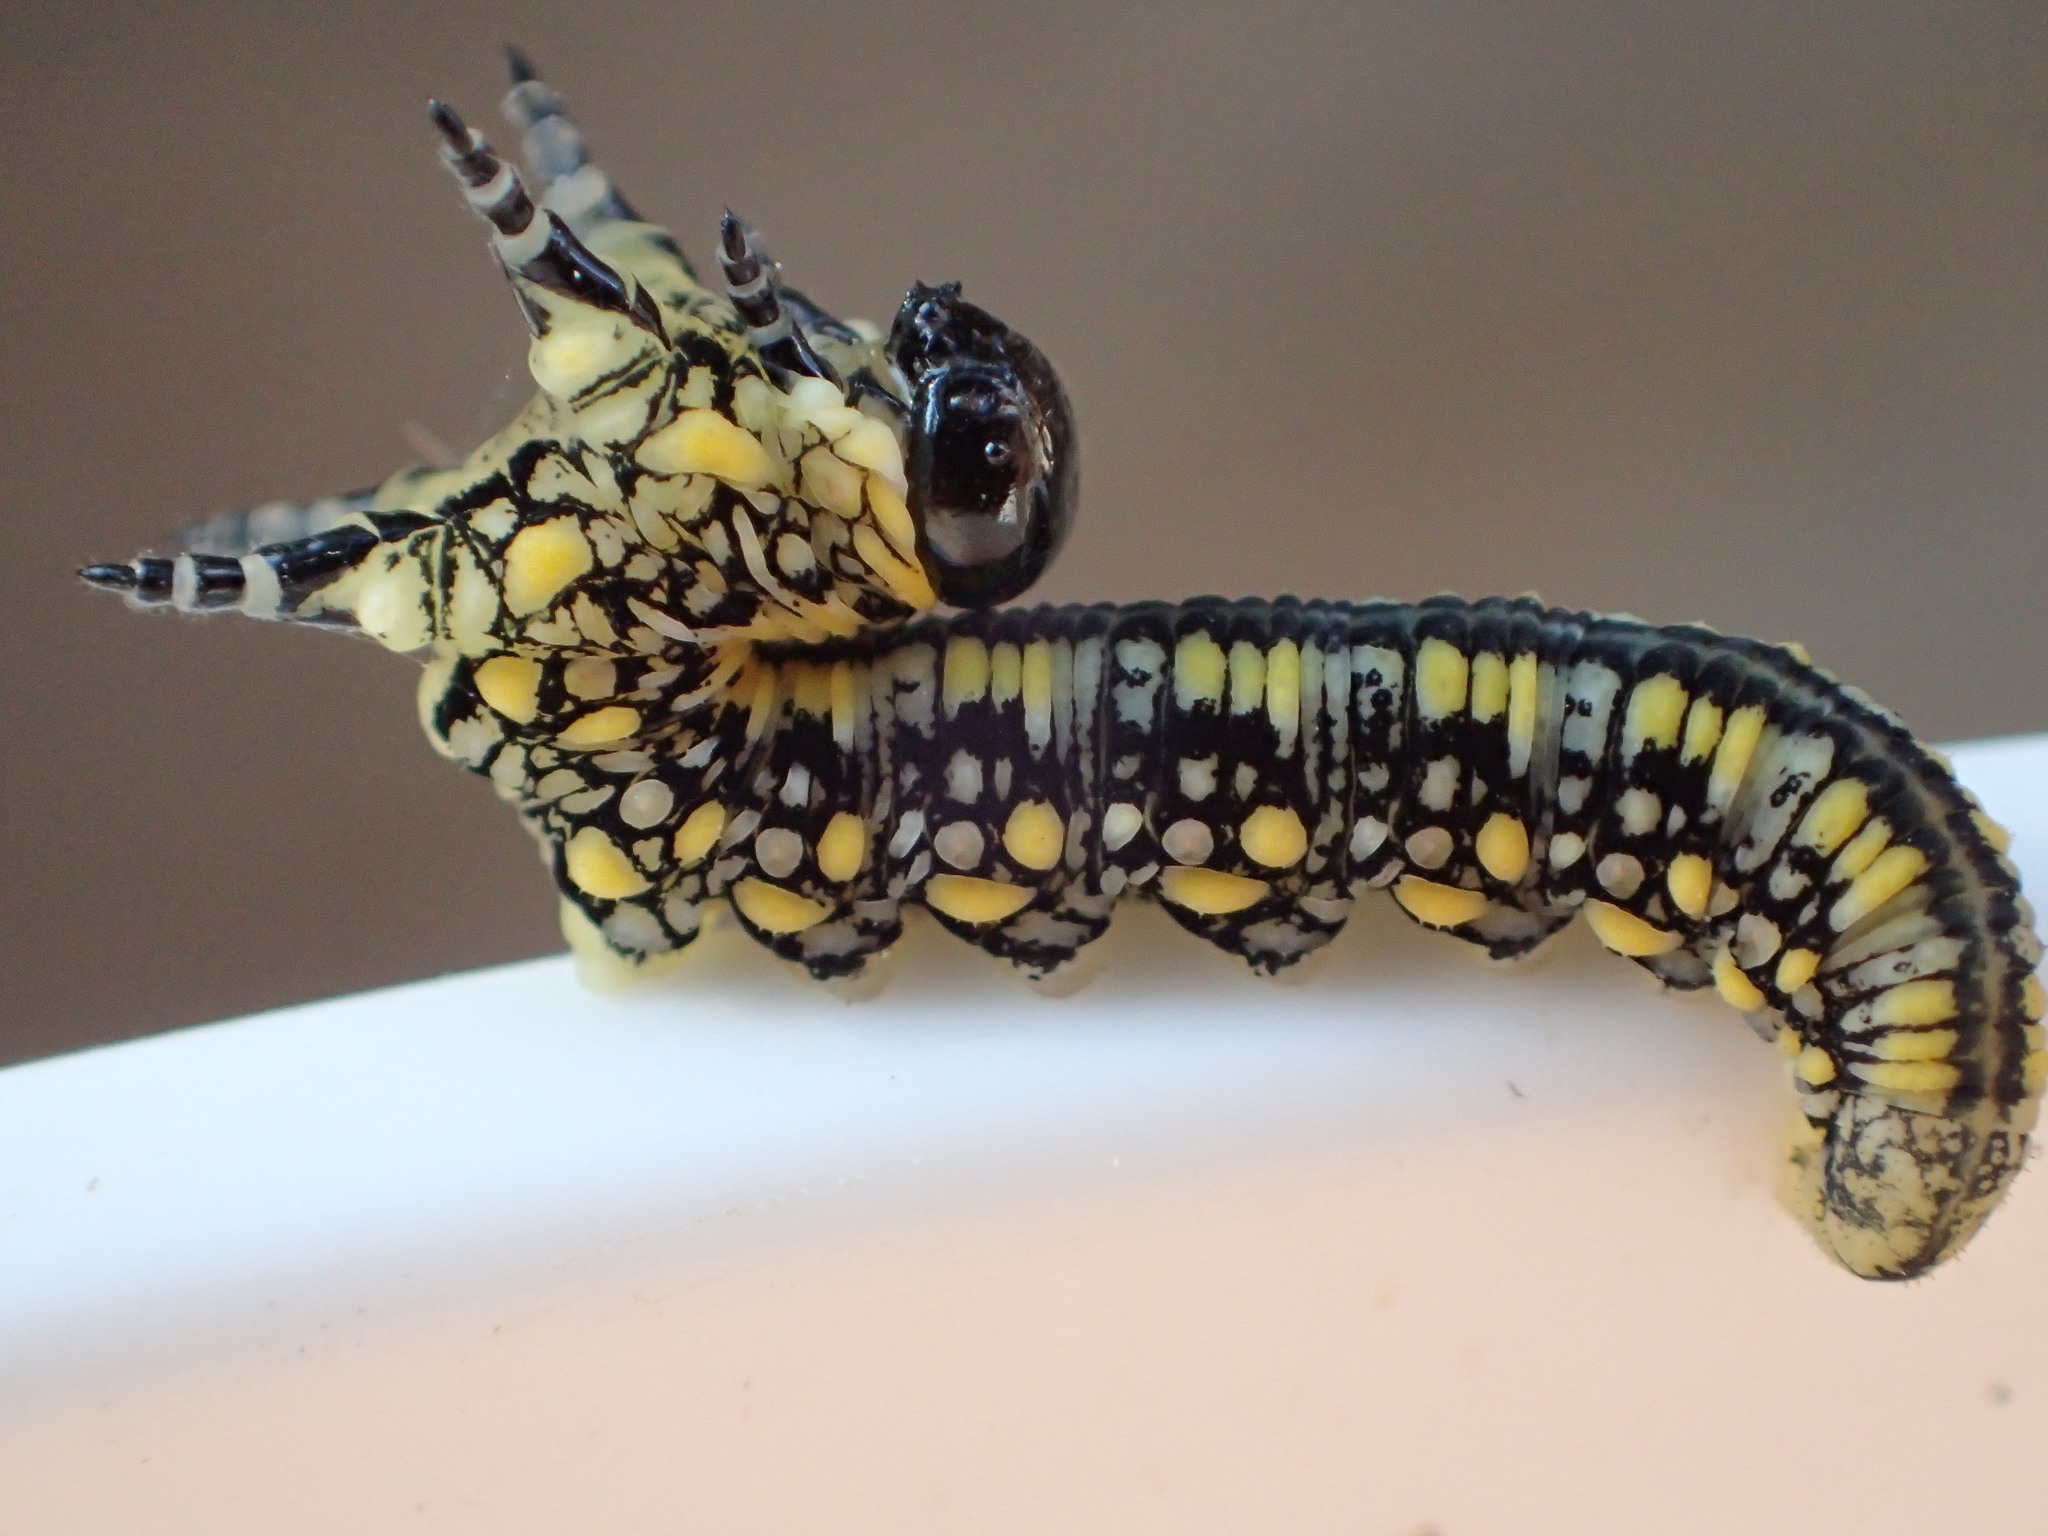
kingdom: Animalia
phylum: Arthropoda
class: Insecta
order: Hymenoptera
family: Diprionidae
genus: Diprion
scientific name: Diprion similis
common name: Pine sawfly
